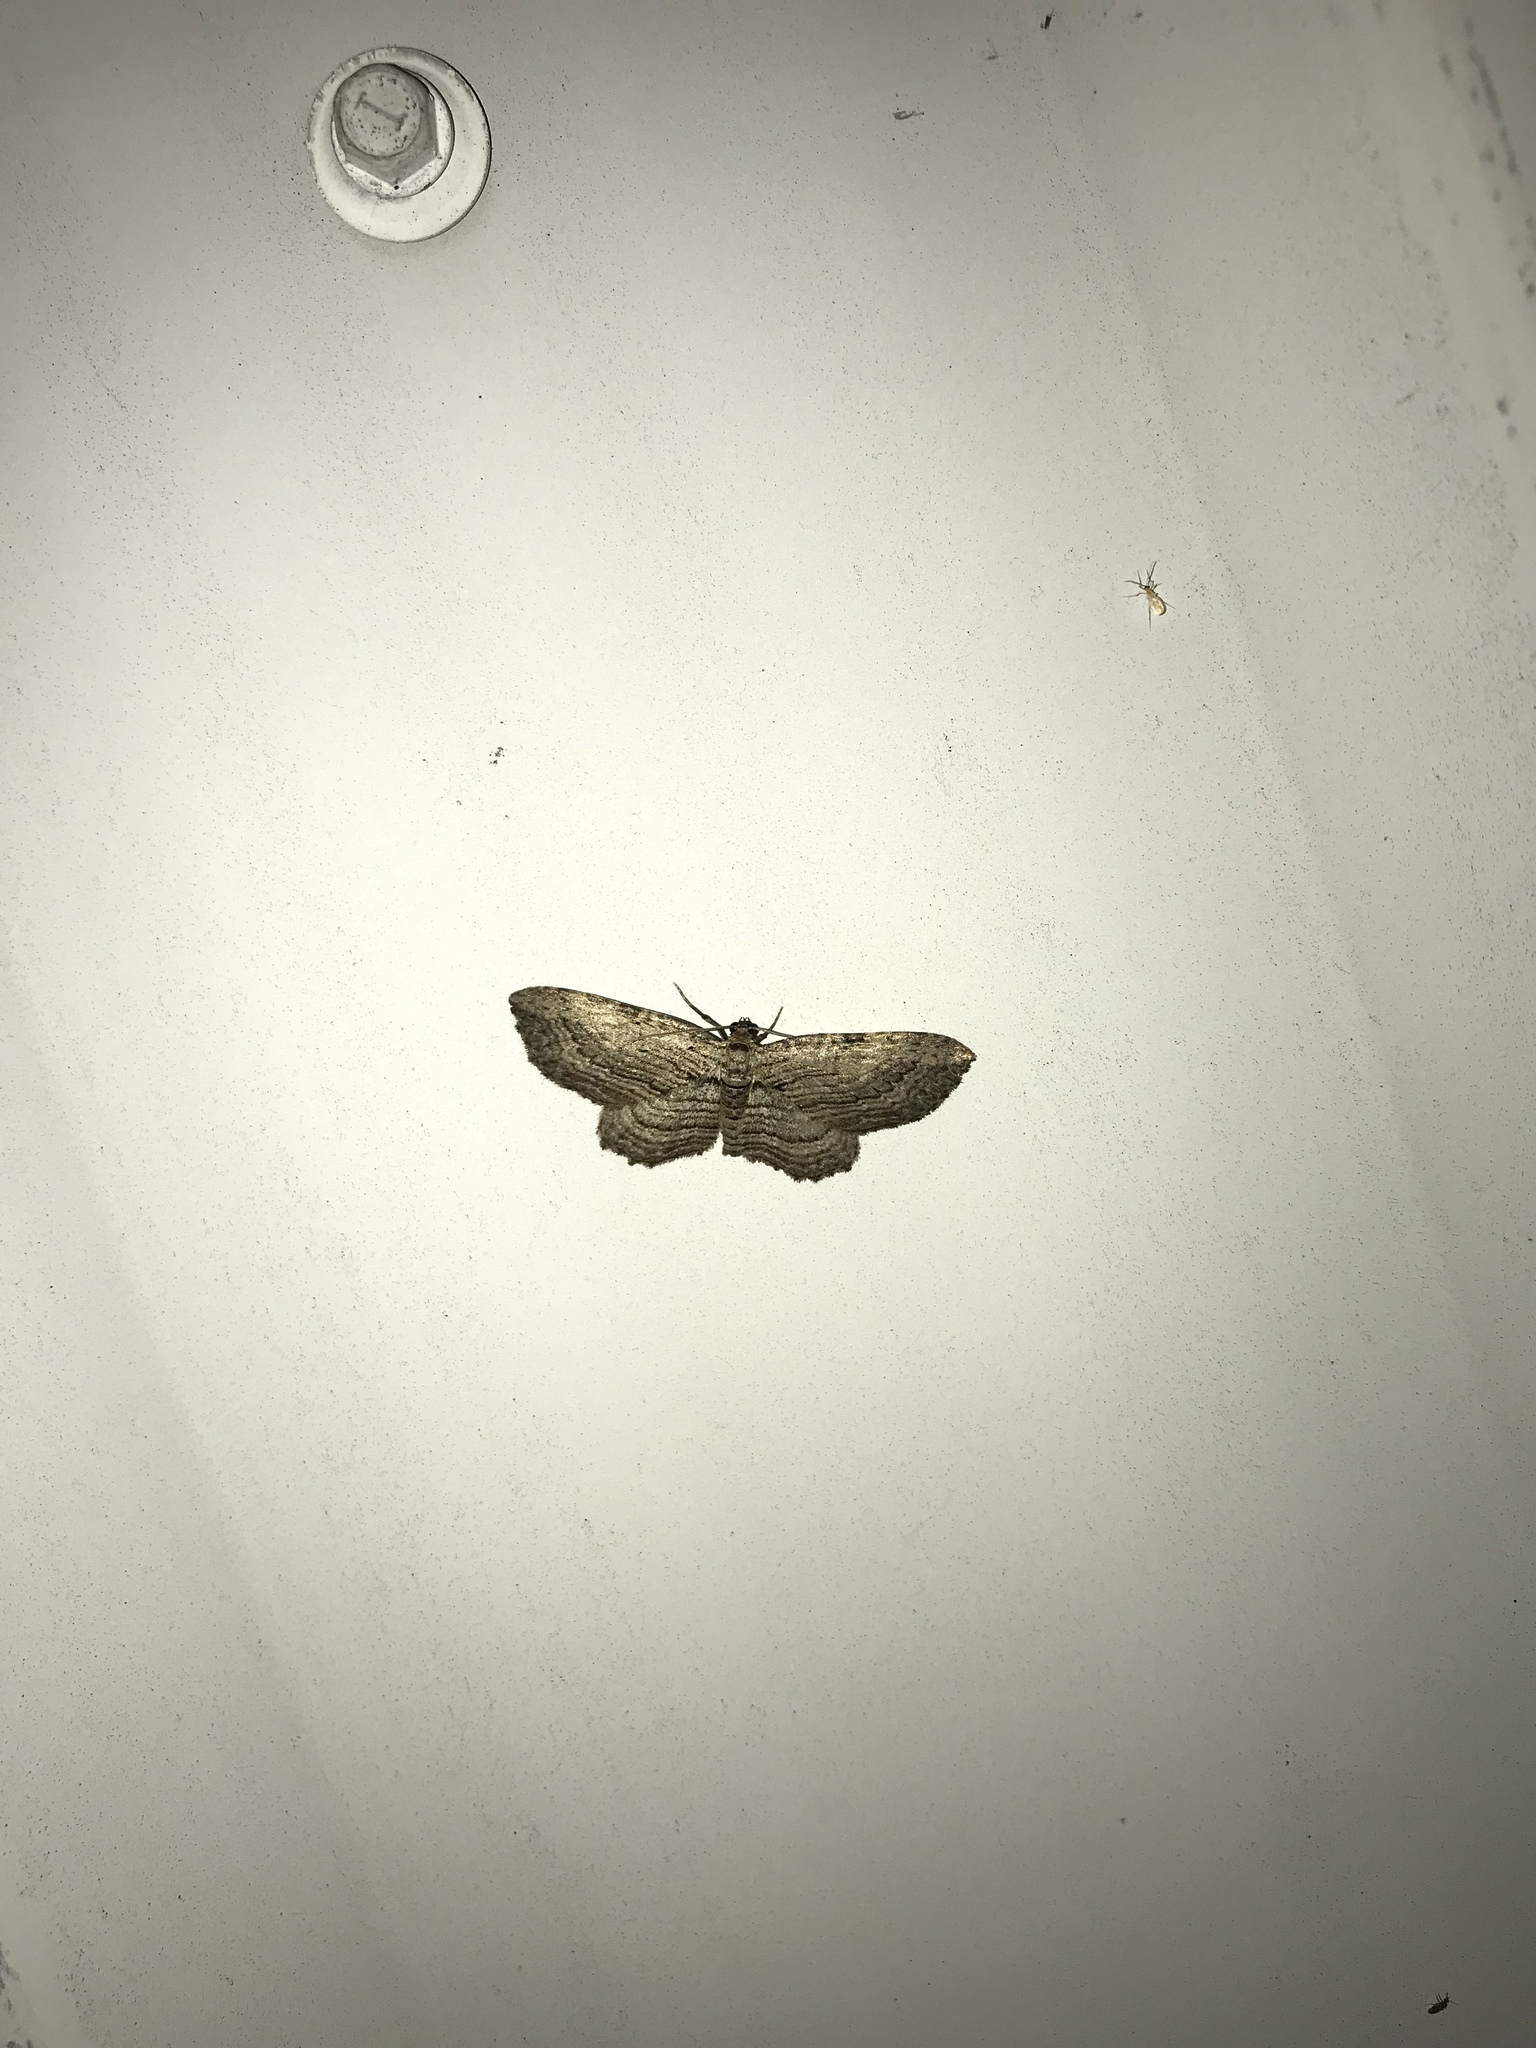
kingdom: Animalia
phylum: Arthropoda
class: Insecta
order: Lepidoptera
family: Geometridae
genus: Horisme
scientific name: Horisme intestinata
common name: Brown bark carpet
